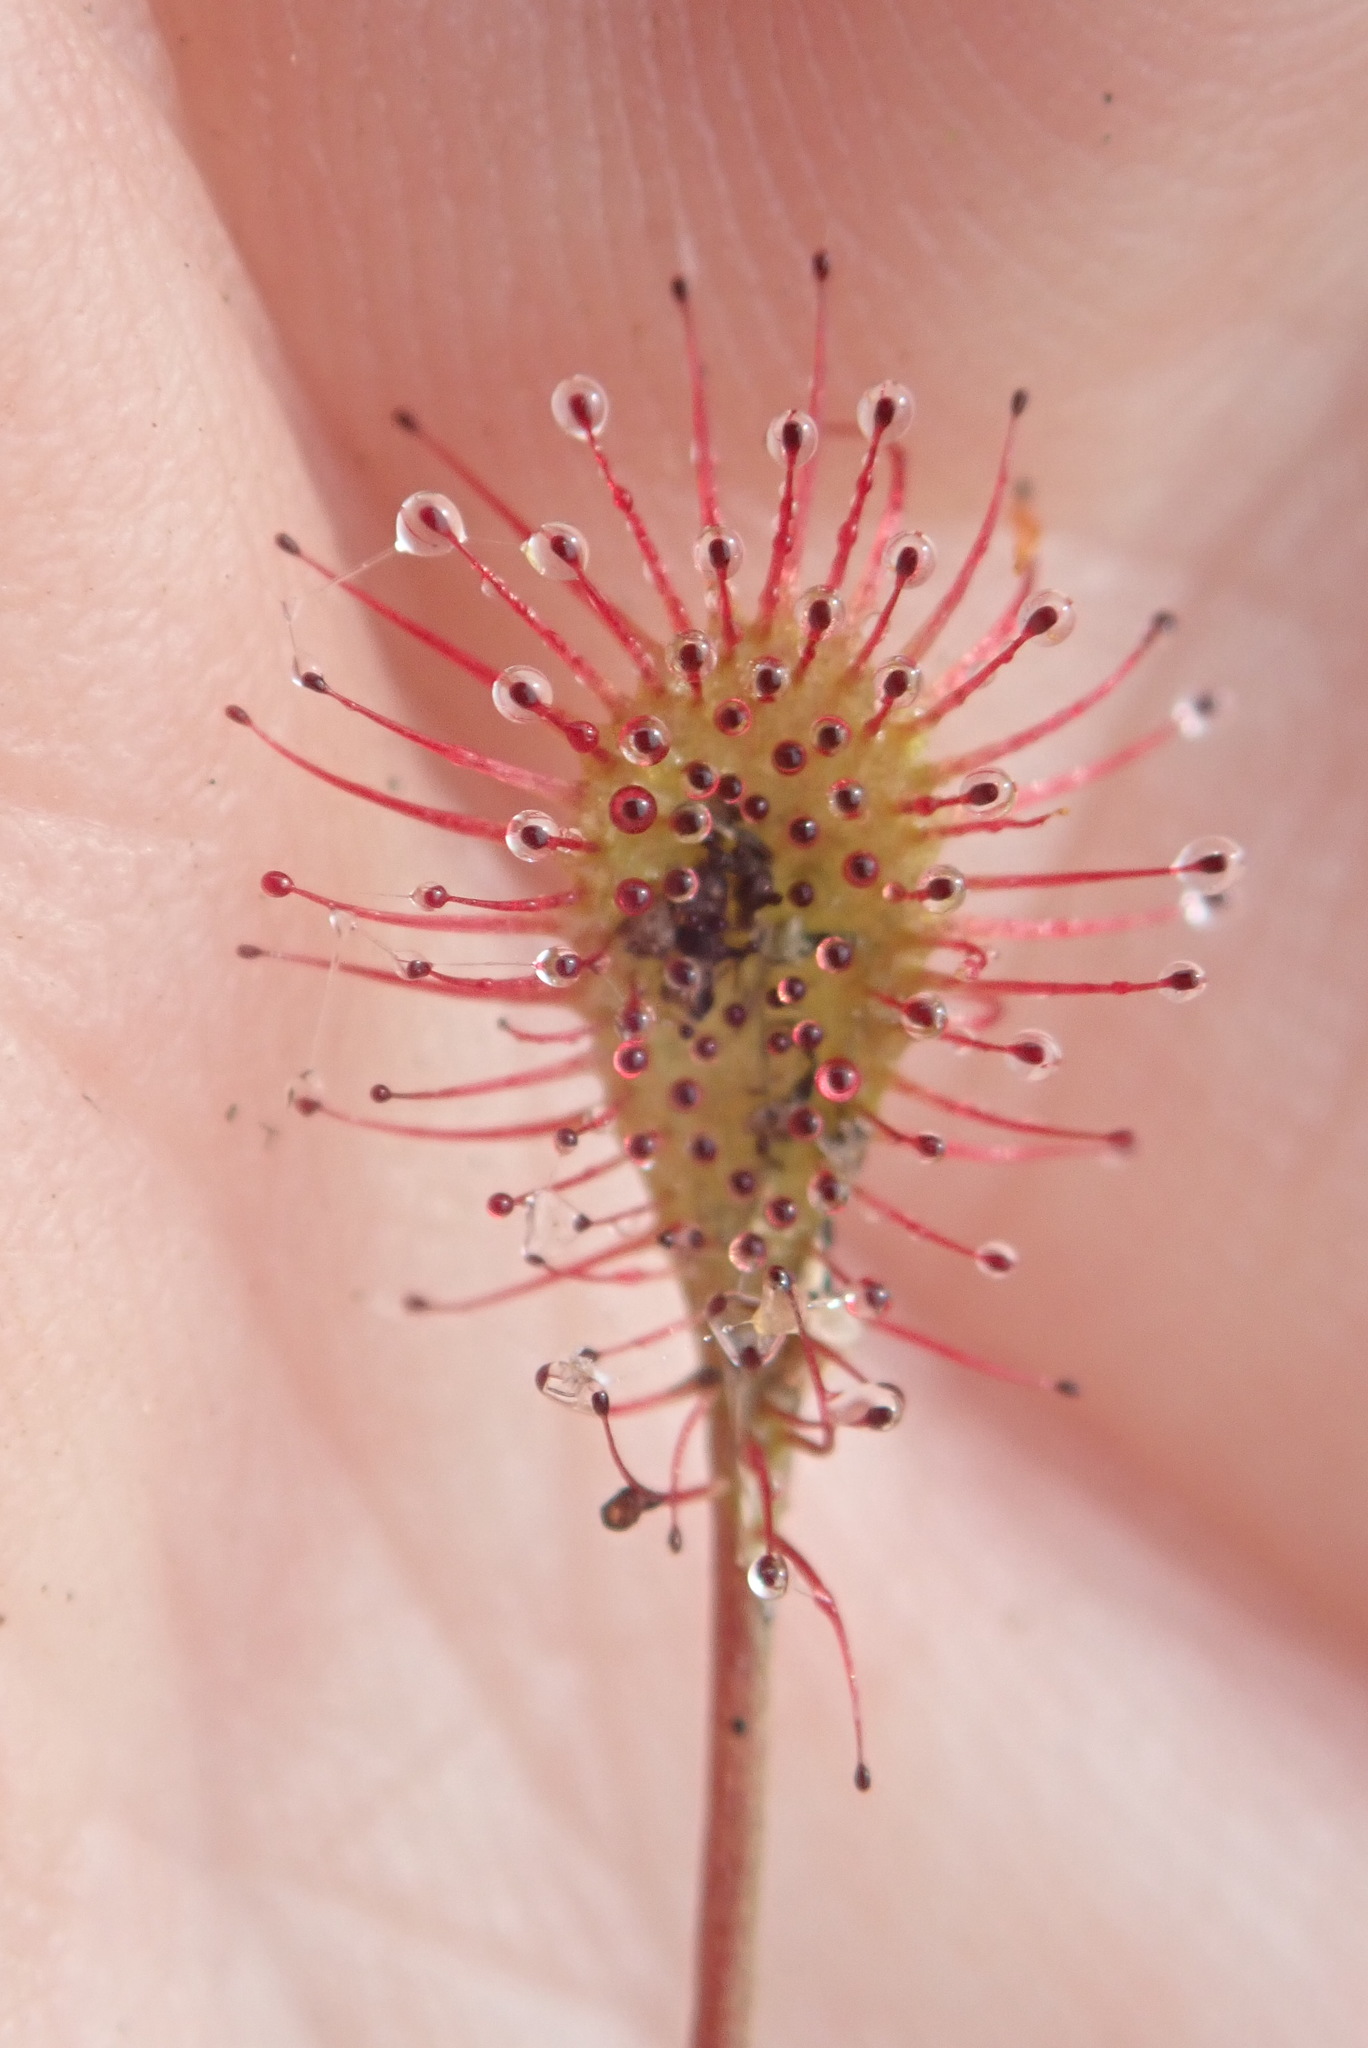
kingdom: Plantae
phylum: Tracheophyta
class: Magnoliopsida
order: Caryophyllales
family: Droseraceae
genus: Drosera
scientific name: Drosera intermedia
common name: Oblong-leaved sundew
